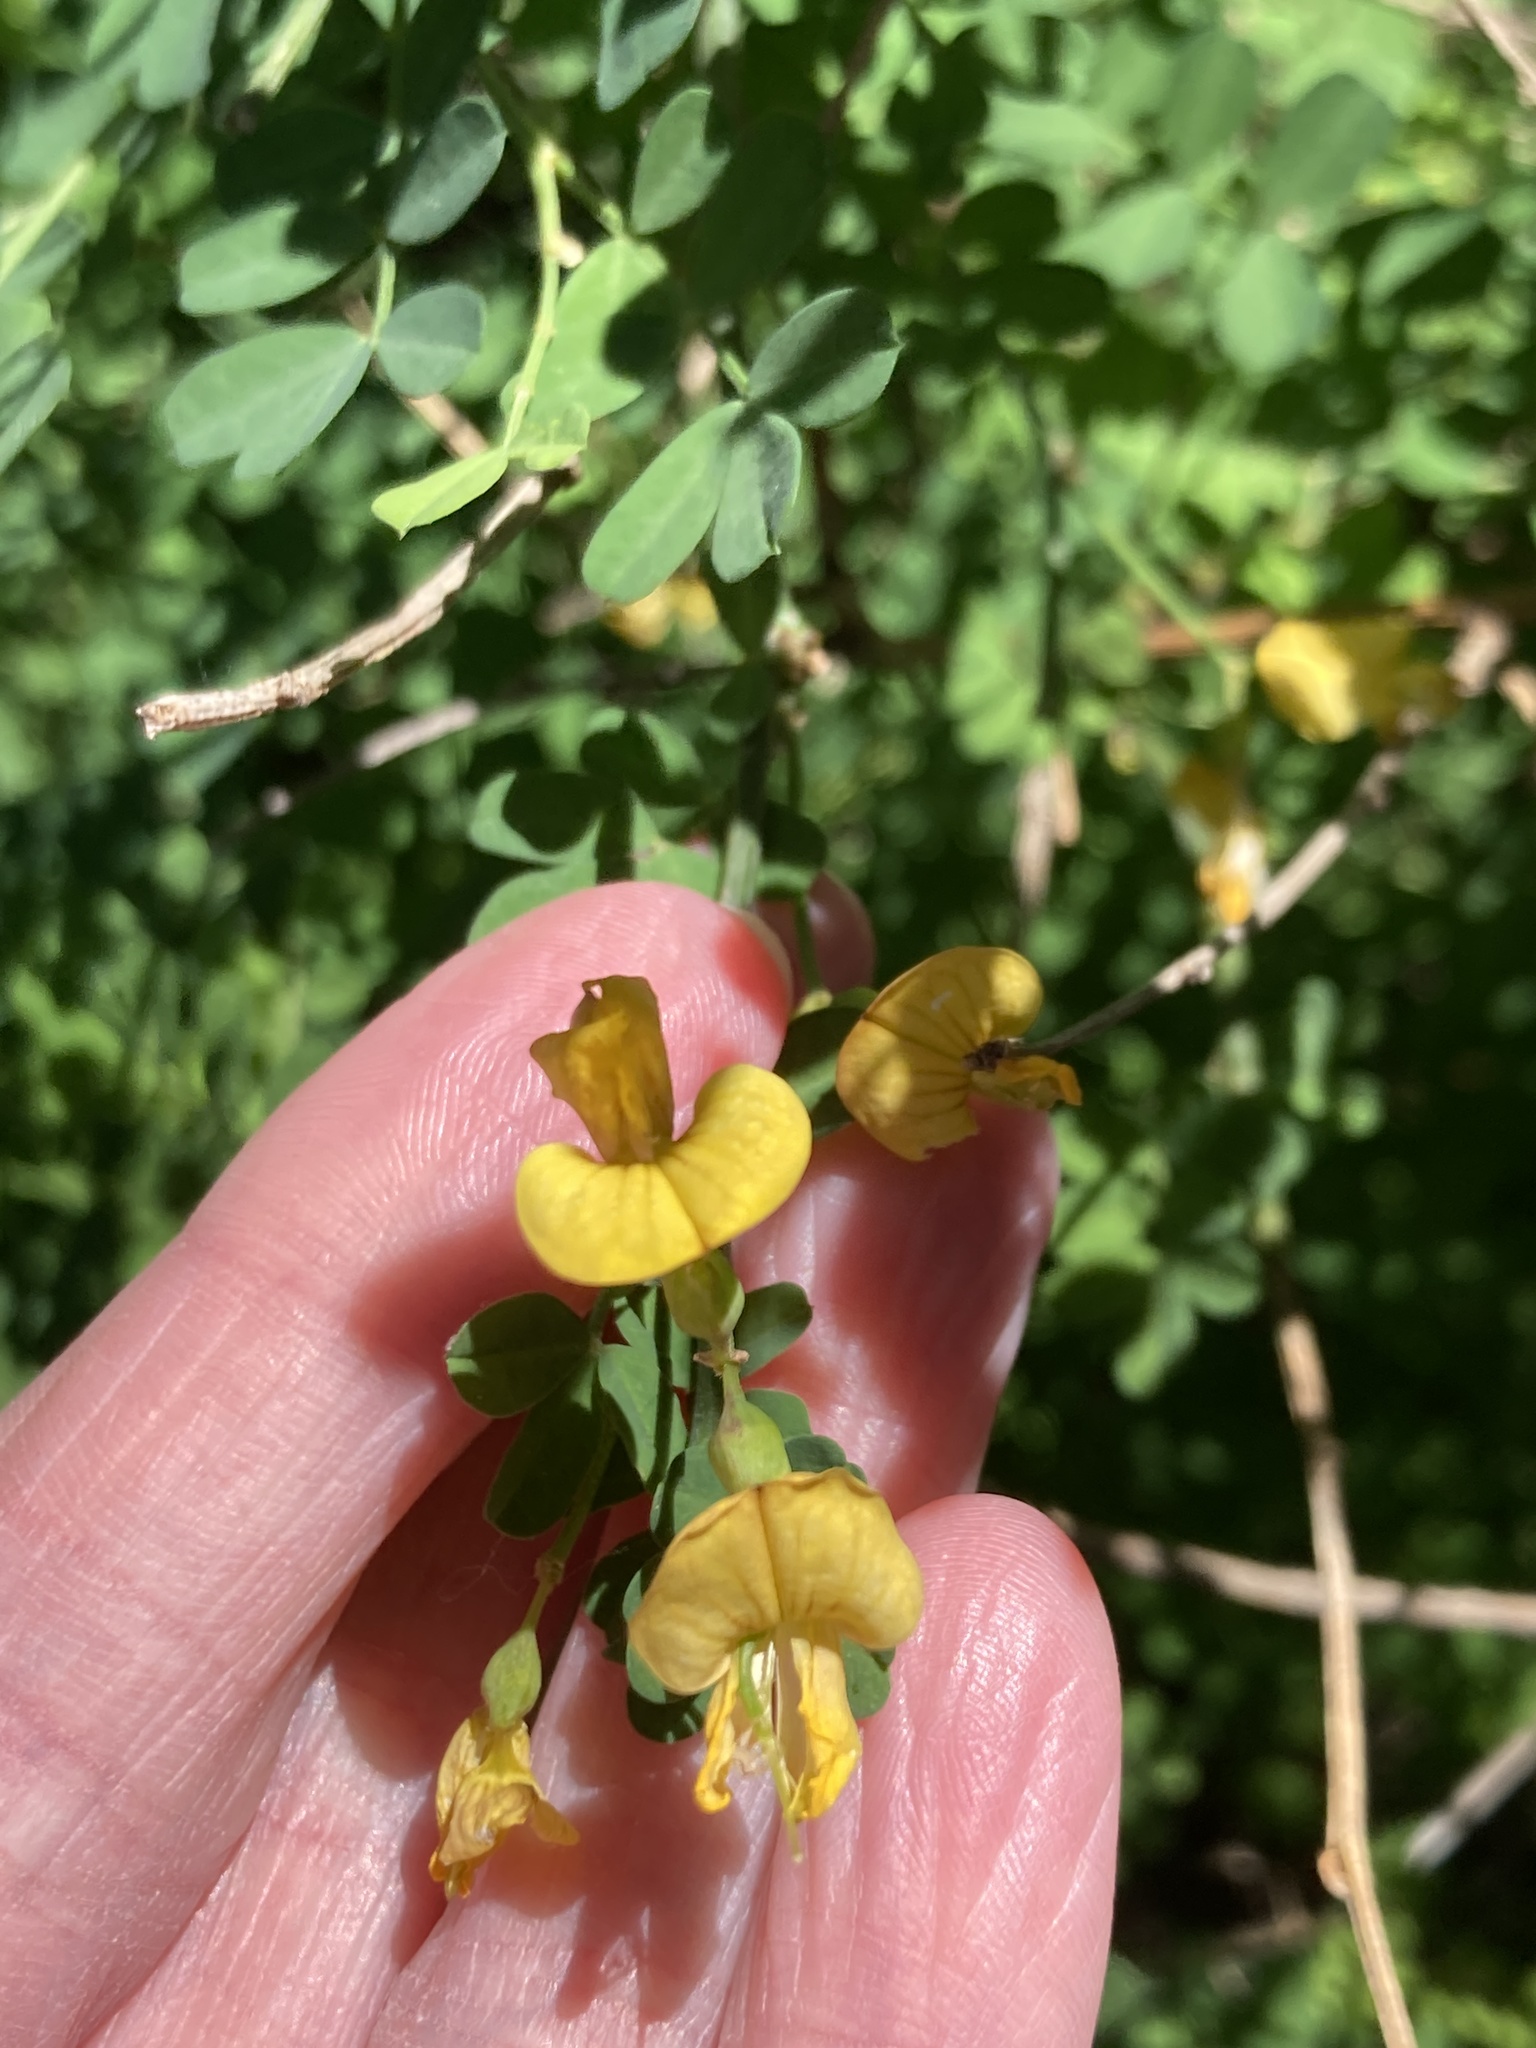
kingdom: Plantae
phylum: Tracheophyta
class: Magnoliopsida
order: Fabales
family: Fabaceae
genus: Hippocrepis
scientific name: Hippocrepis emerus
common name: Scorpion senna
